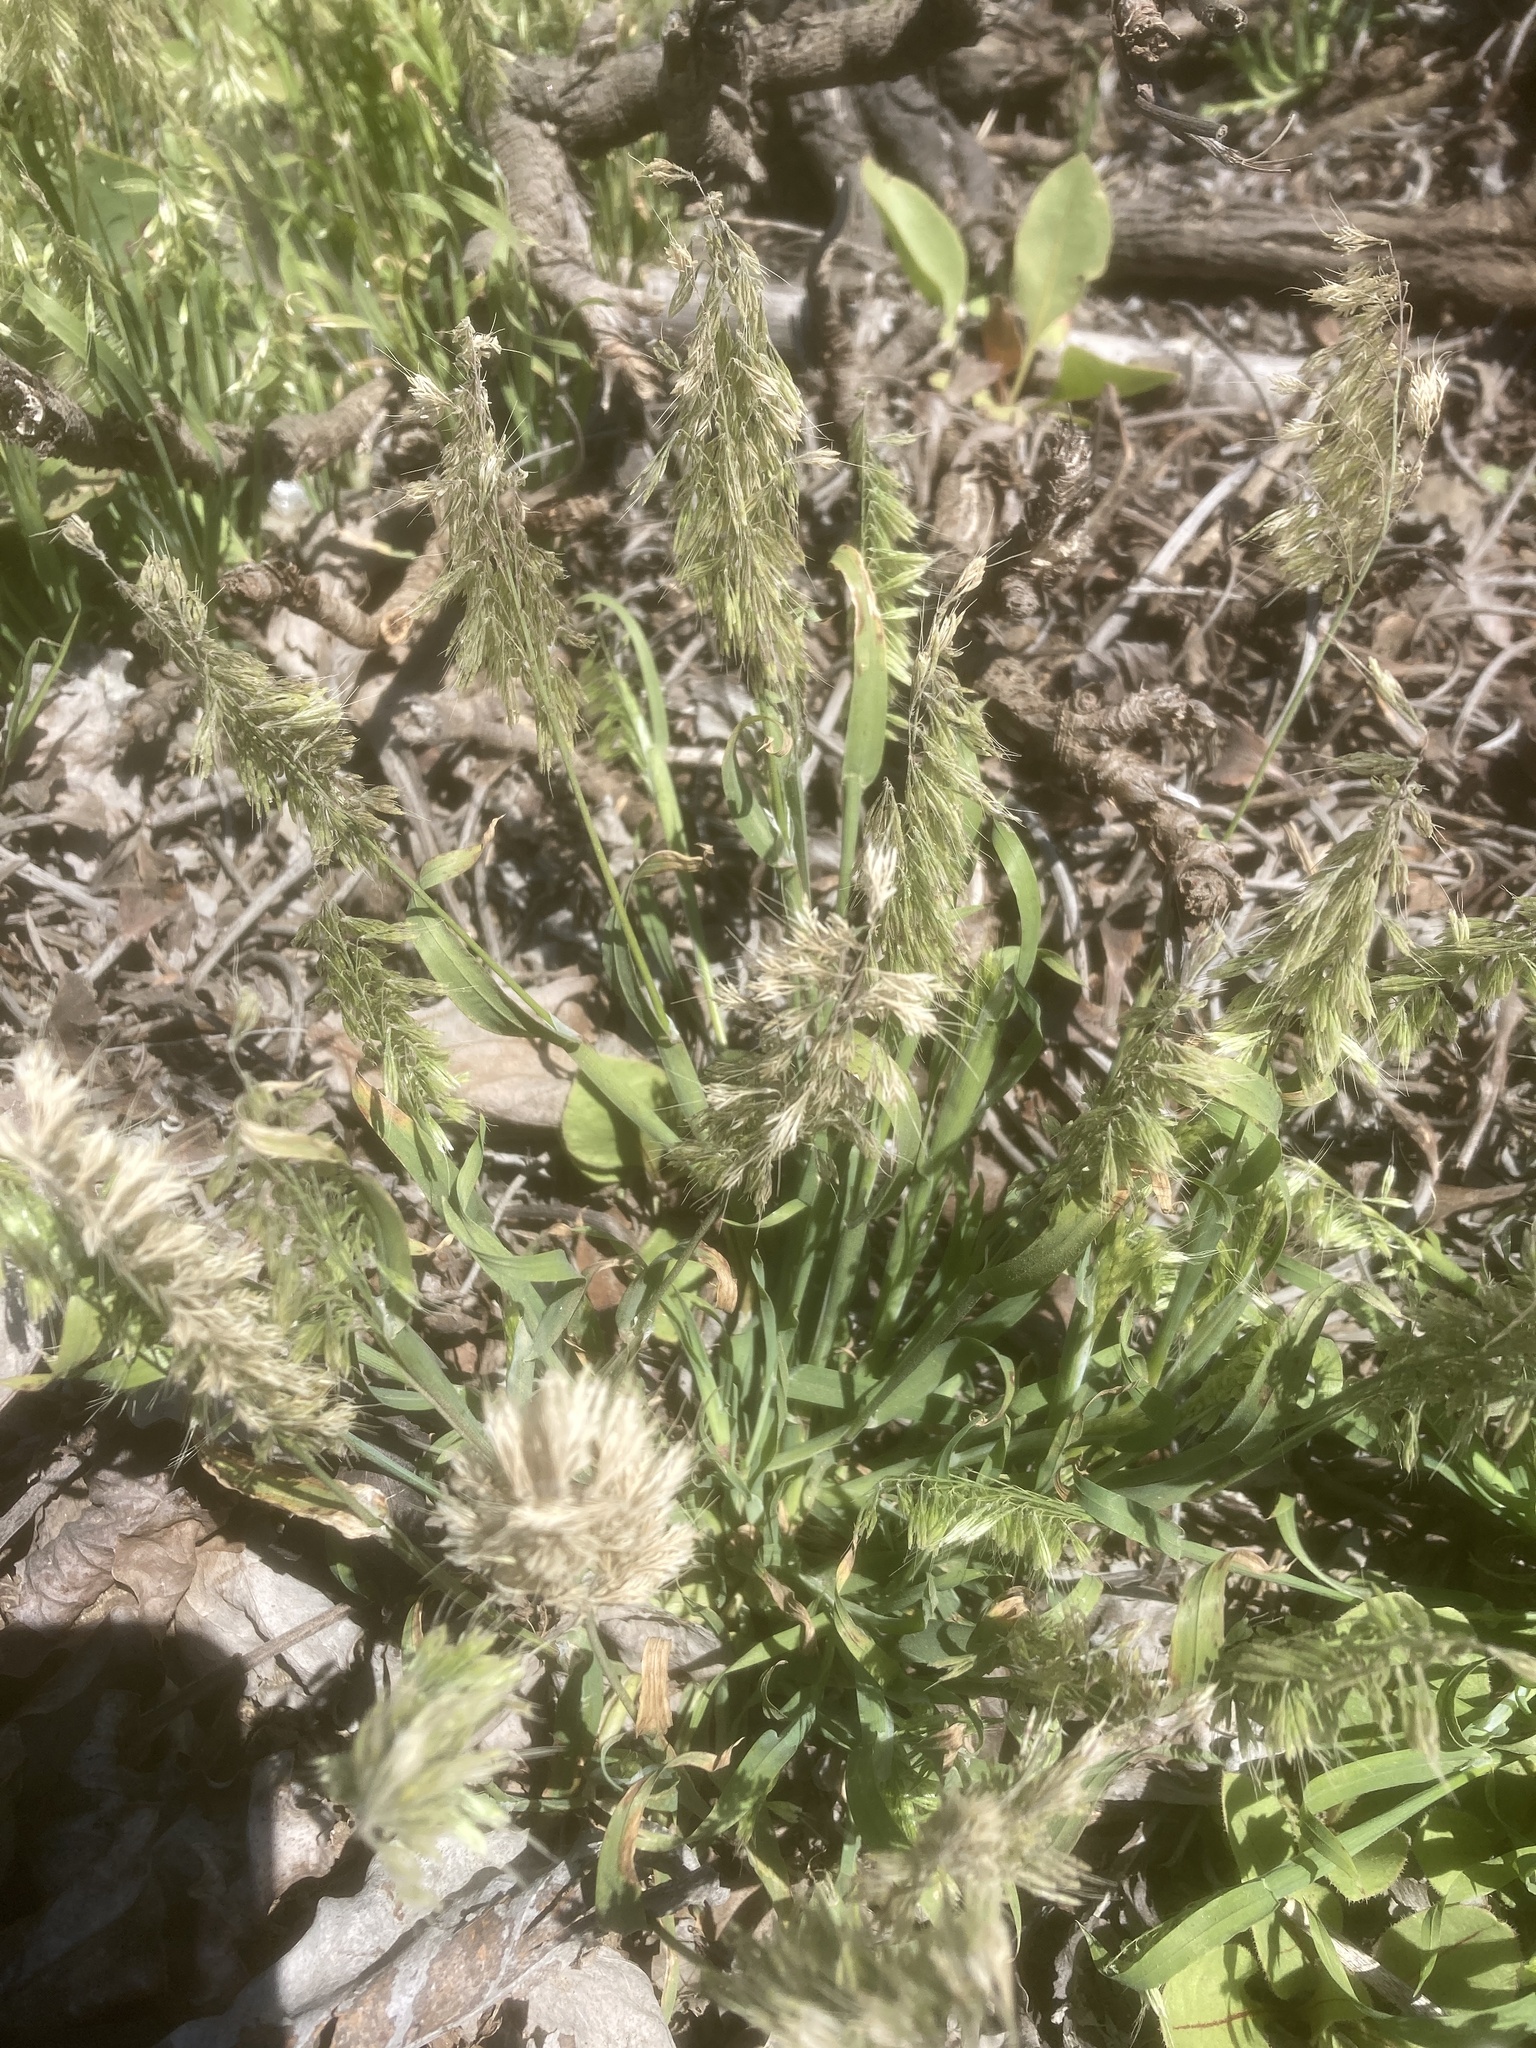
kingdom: Plantae
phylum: Tracheophyta
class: Liliopsida
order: Poales
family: Poaceae
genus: Lamarckia
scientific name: Lamarckia aurea
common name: Golden dog's-tail
